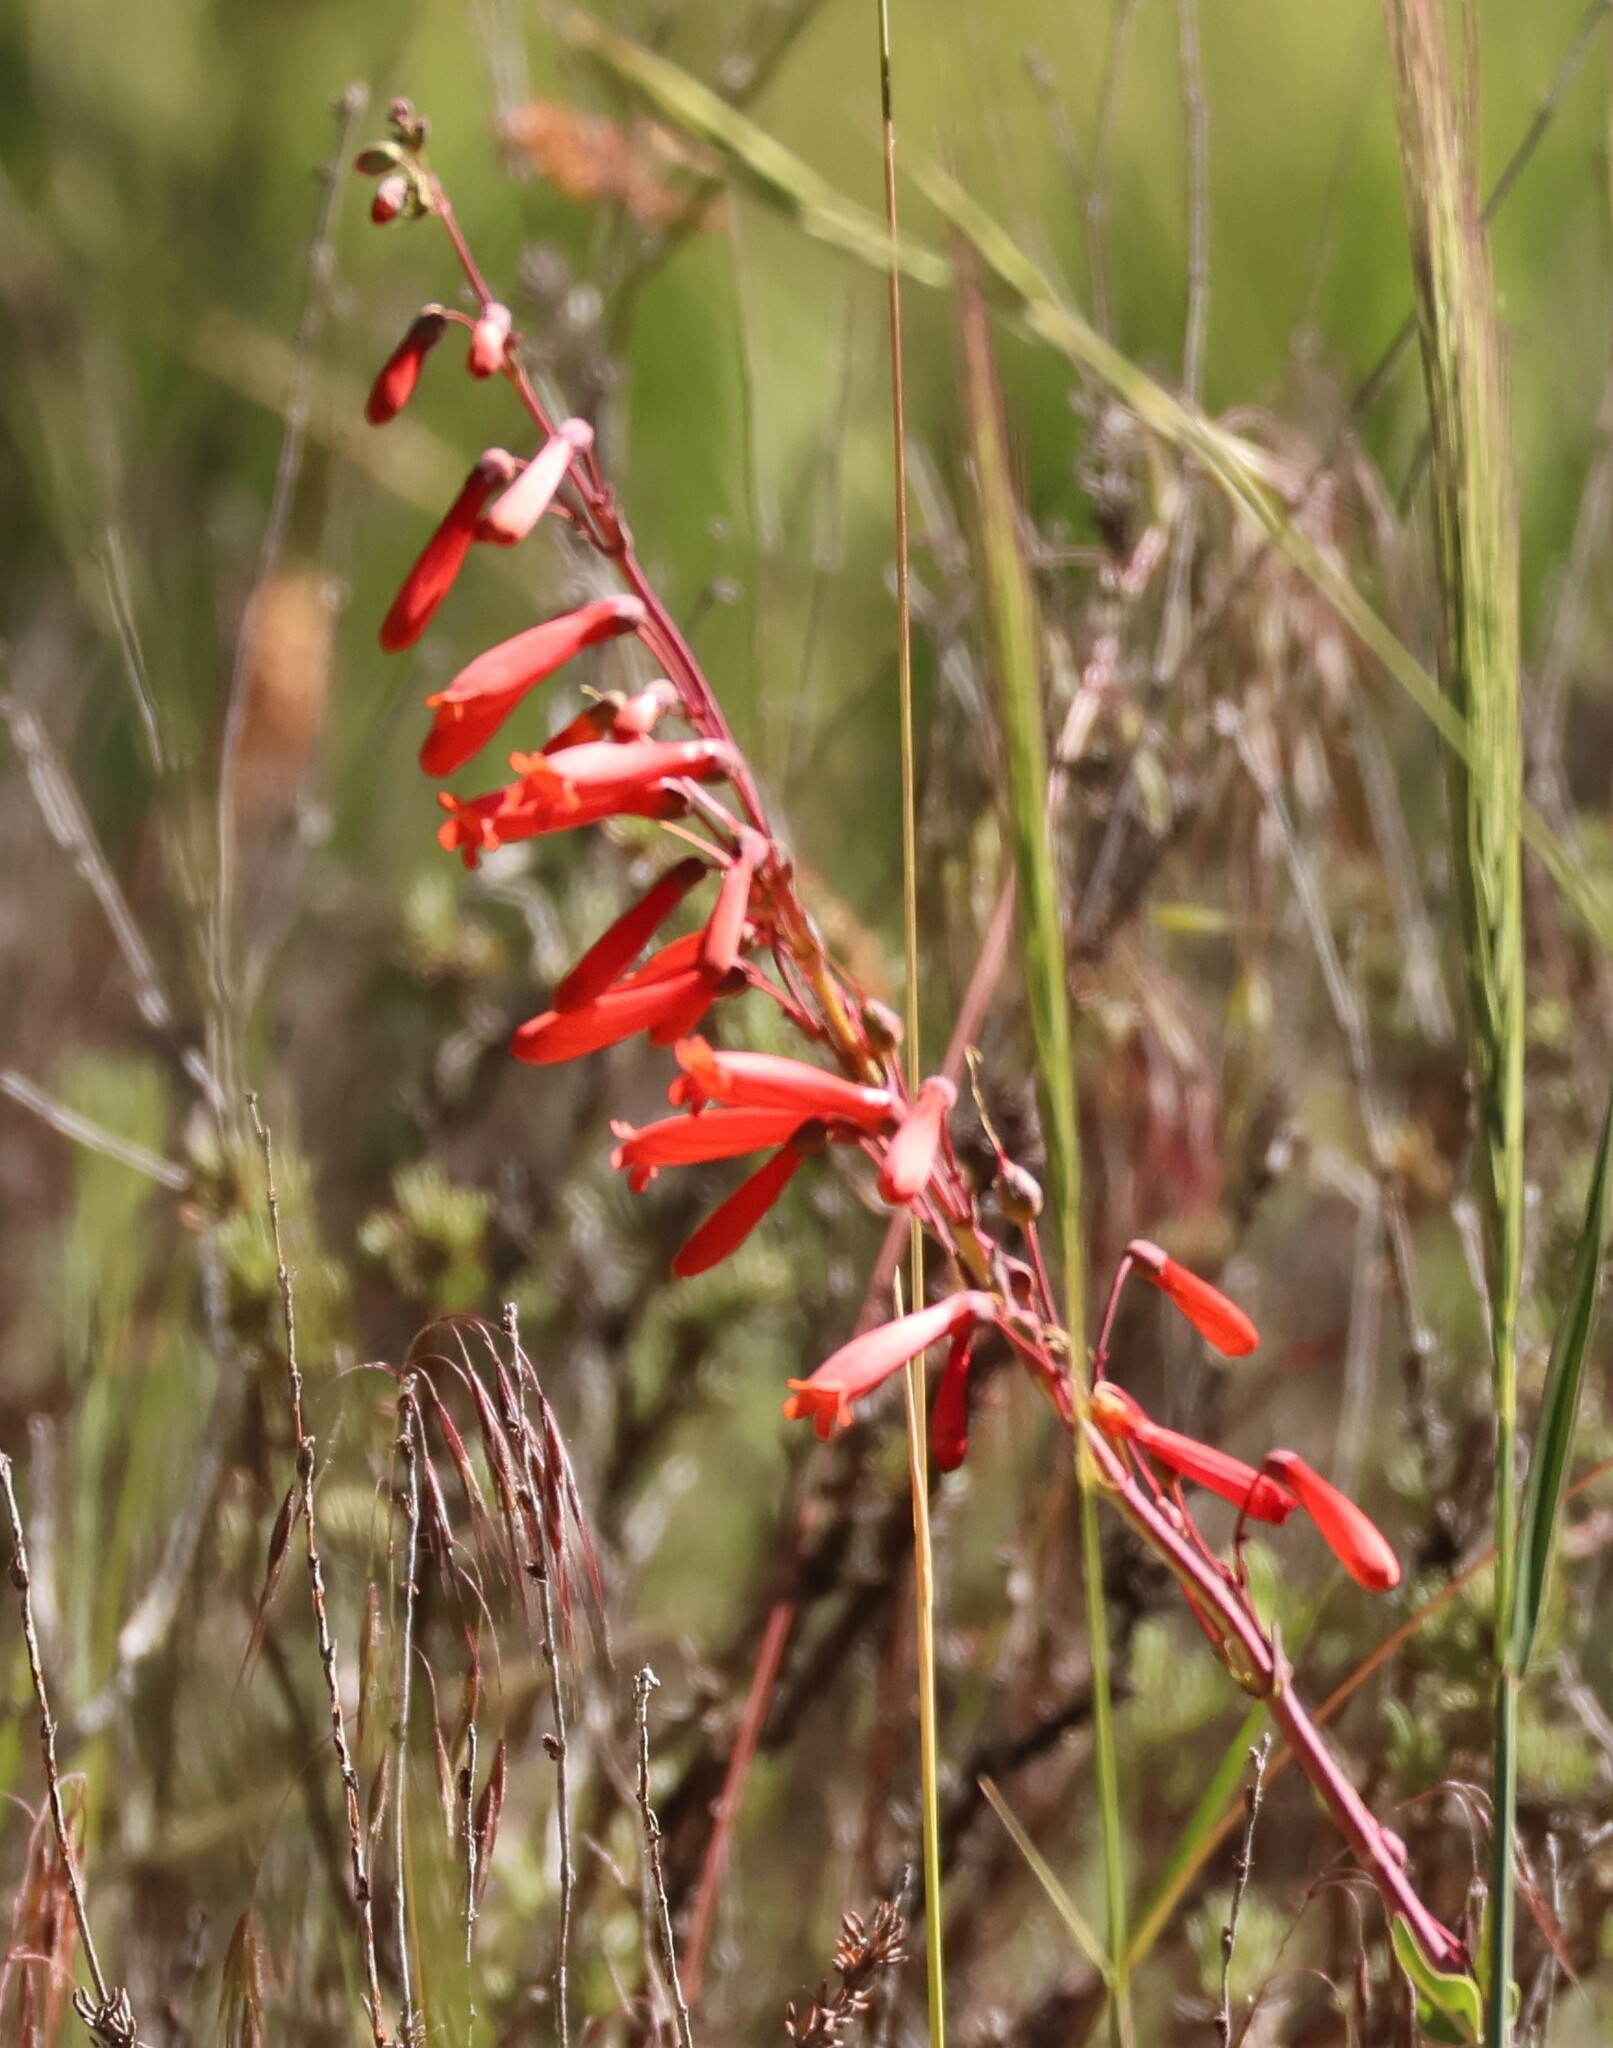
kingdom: Plantae
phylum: Tracheophyta
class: Magnoliopsida
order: Lamiales
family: Plantaginaceae
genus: Penstemon
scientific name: Penstemon centranthifolius
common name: Scarlet bugler
